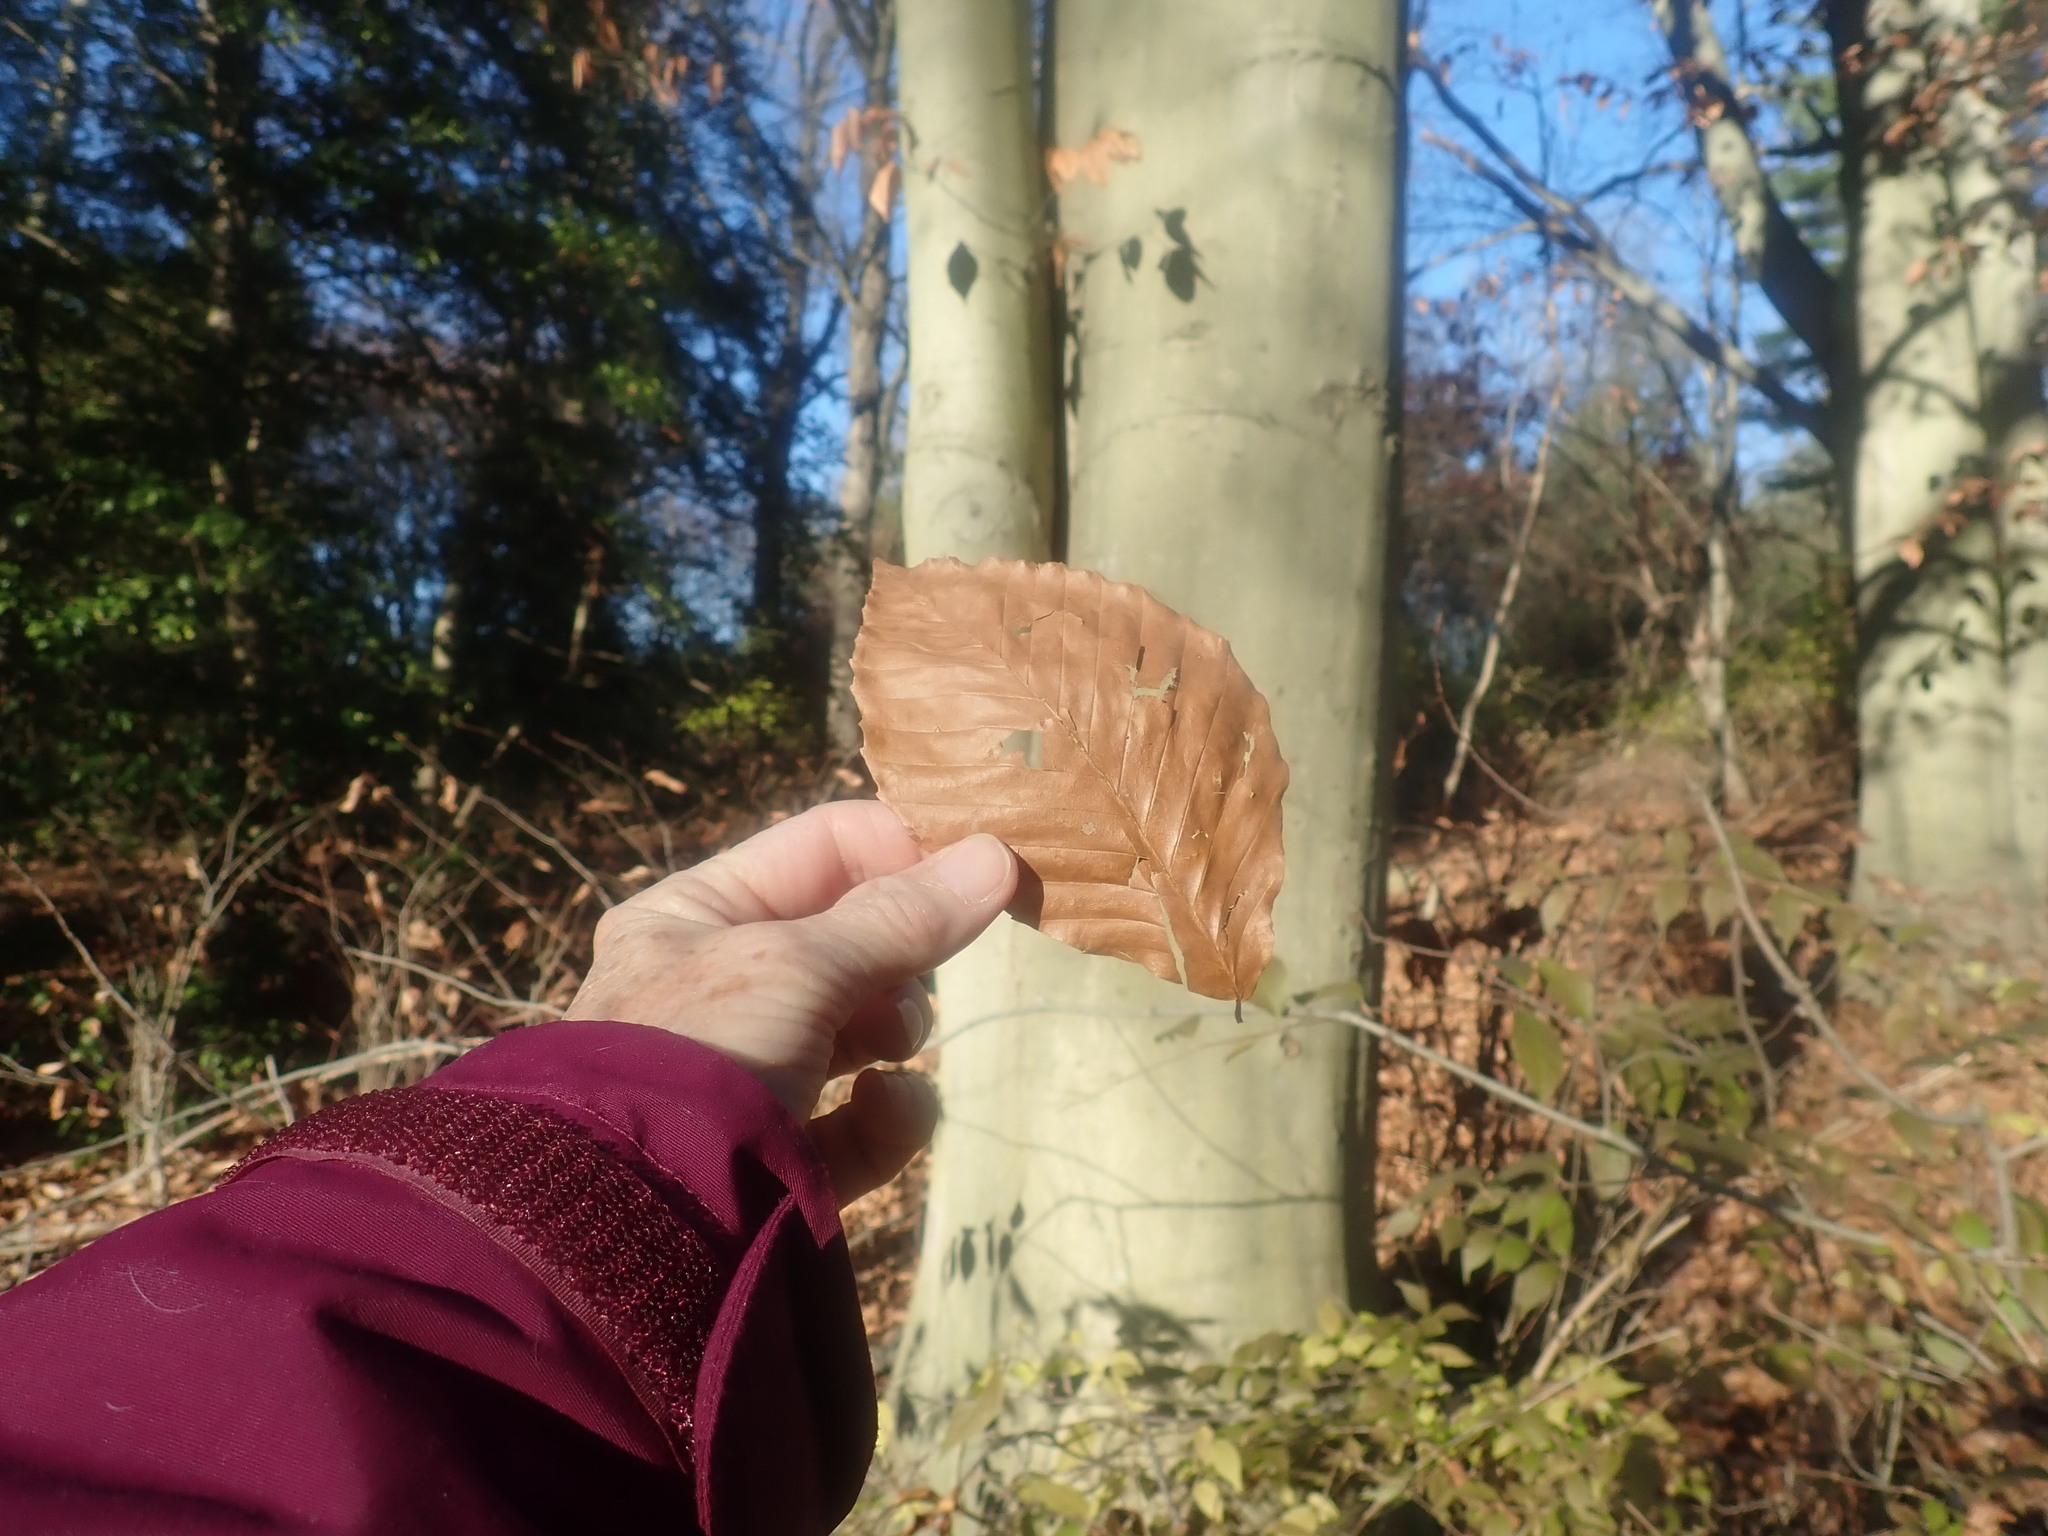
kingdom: Plantae
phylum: Tracheophyta
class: Magnoliopsida
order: Fagales
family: Fagaceae
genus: Fagus
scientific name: Fagus grandifolia
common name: American beech
